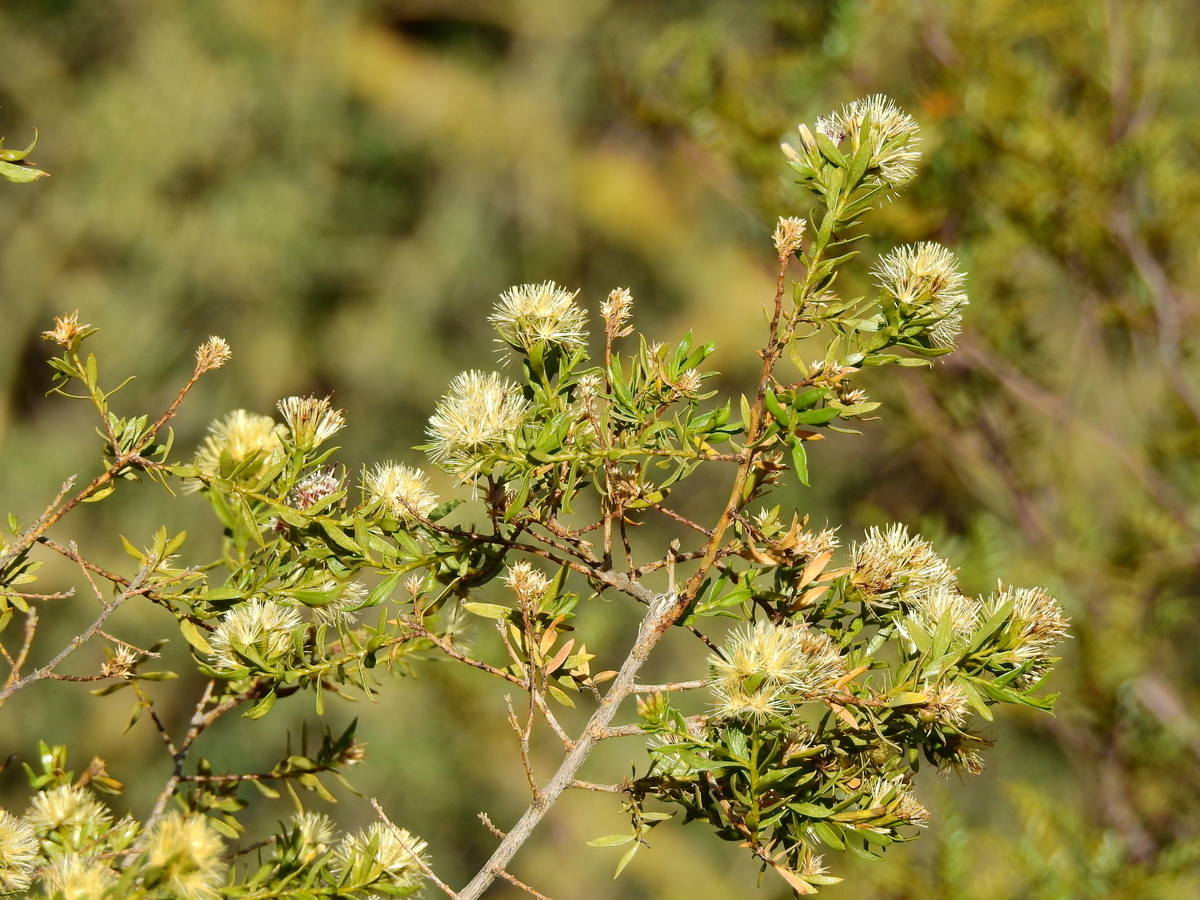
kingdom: Plantae
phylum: Tracheophyta
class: Magnoliopsida
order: Asterales
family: Asteraceae
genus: Gochnatia
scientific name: Gochnatia glutinosa
